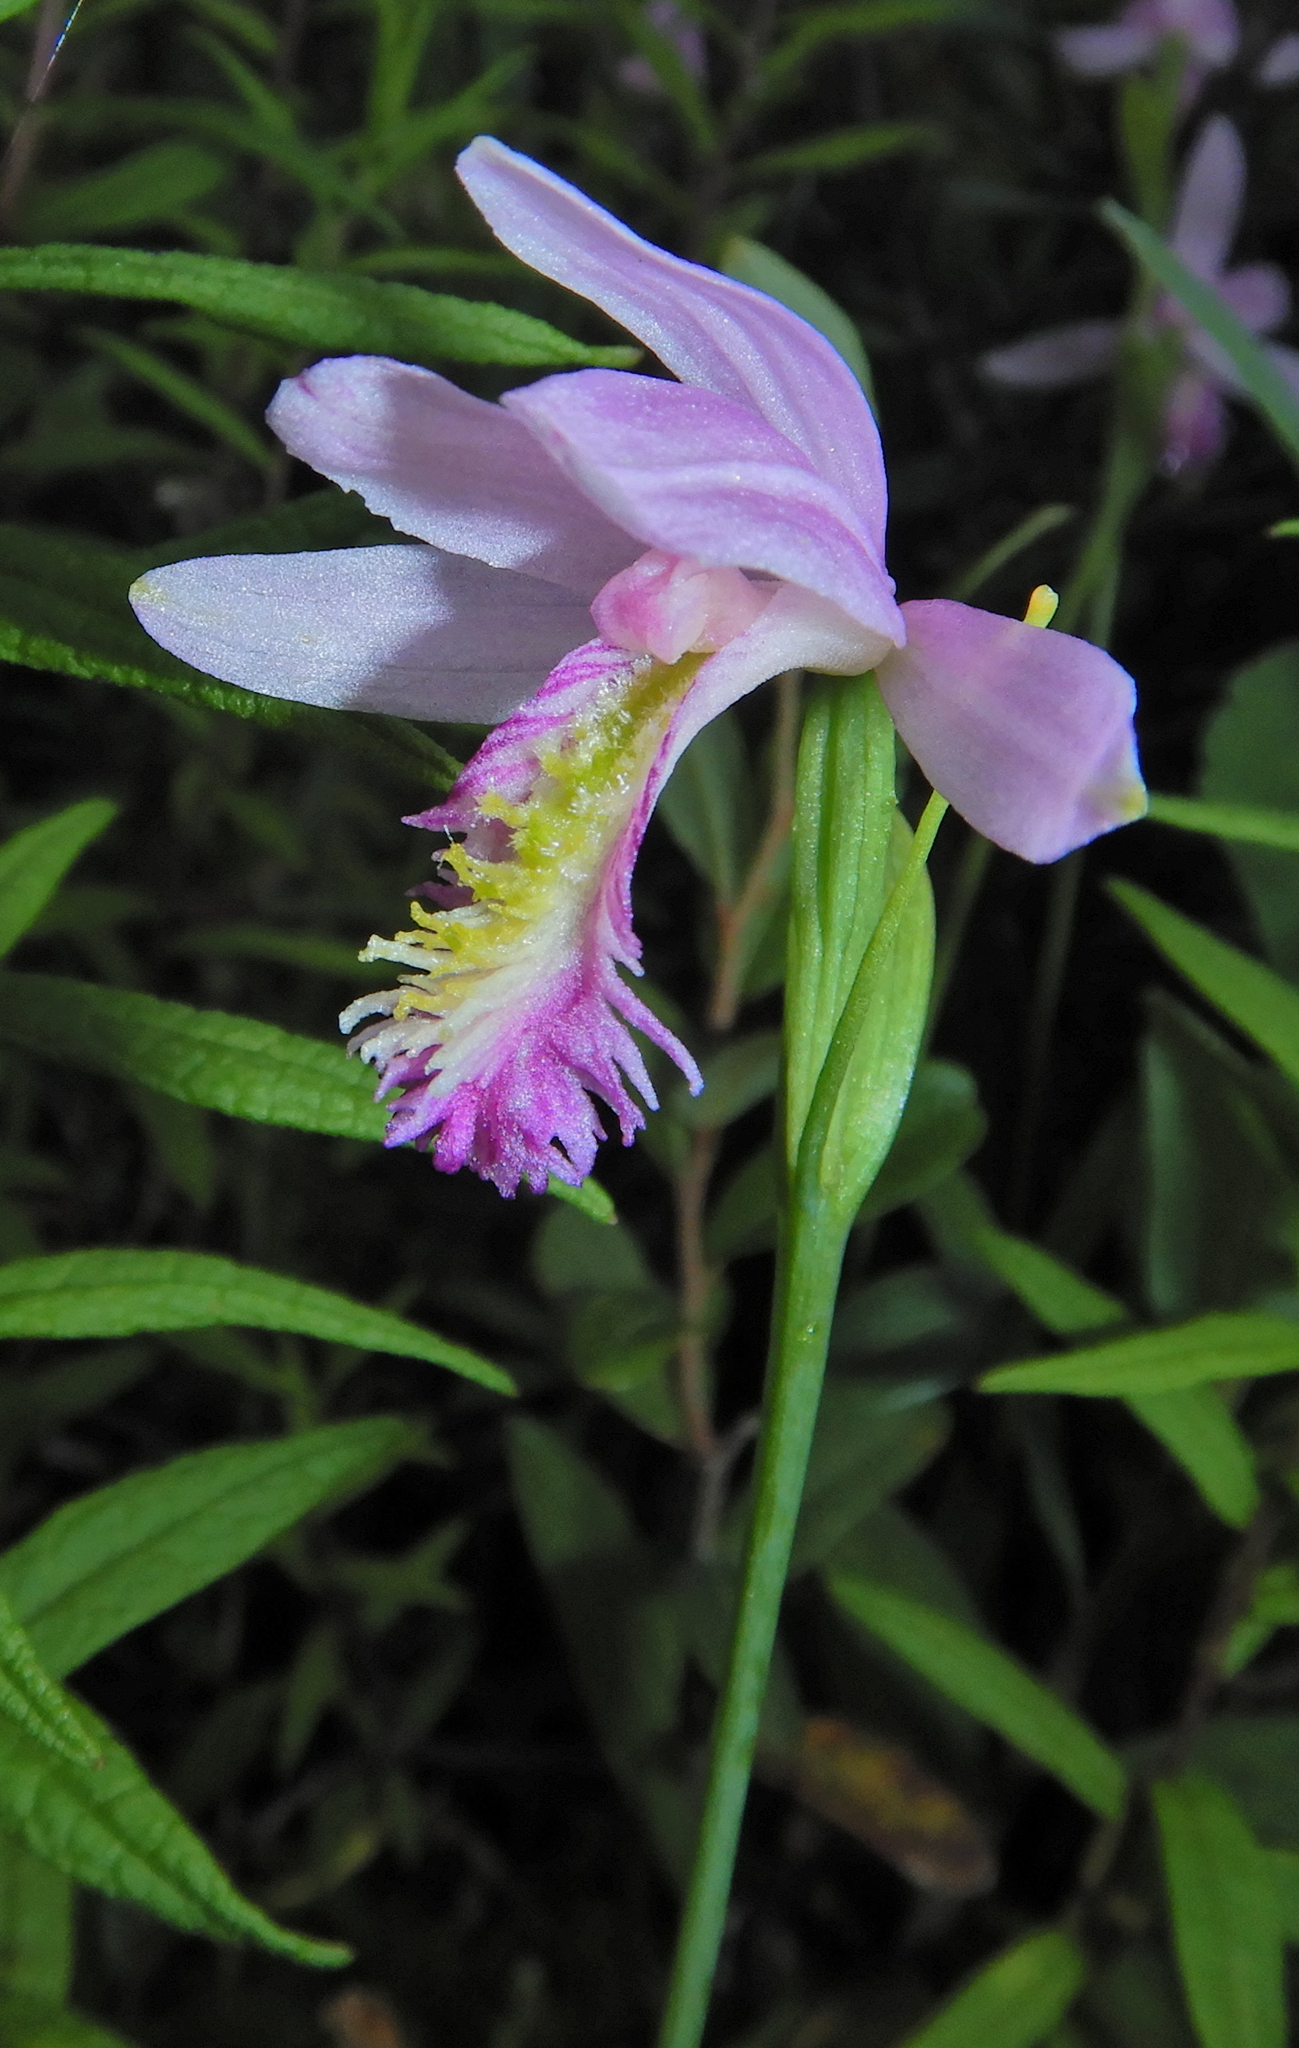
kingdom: Plantae
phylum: Tracheophyta
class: Liliopsida
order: Asparagales
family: Orchidaceae
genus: Pogonia
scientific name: Pogonia ophioglossoides
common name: Rose pogonia
